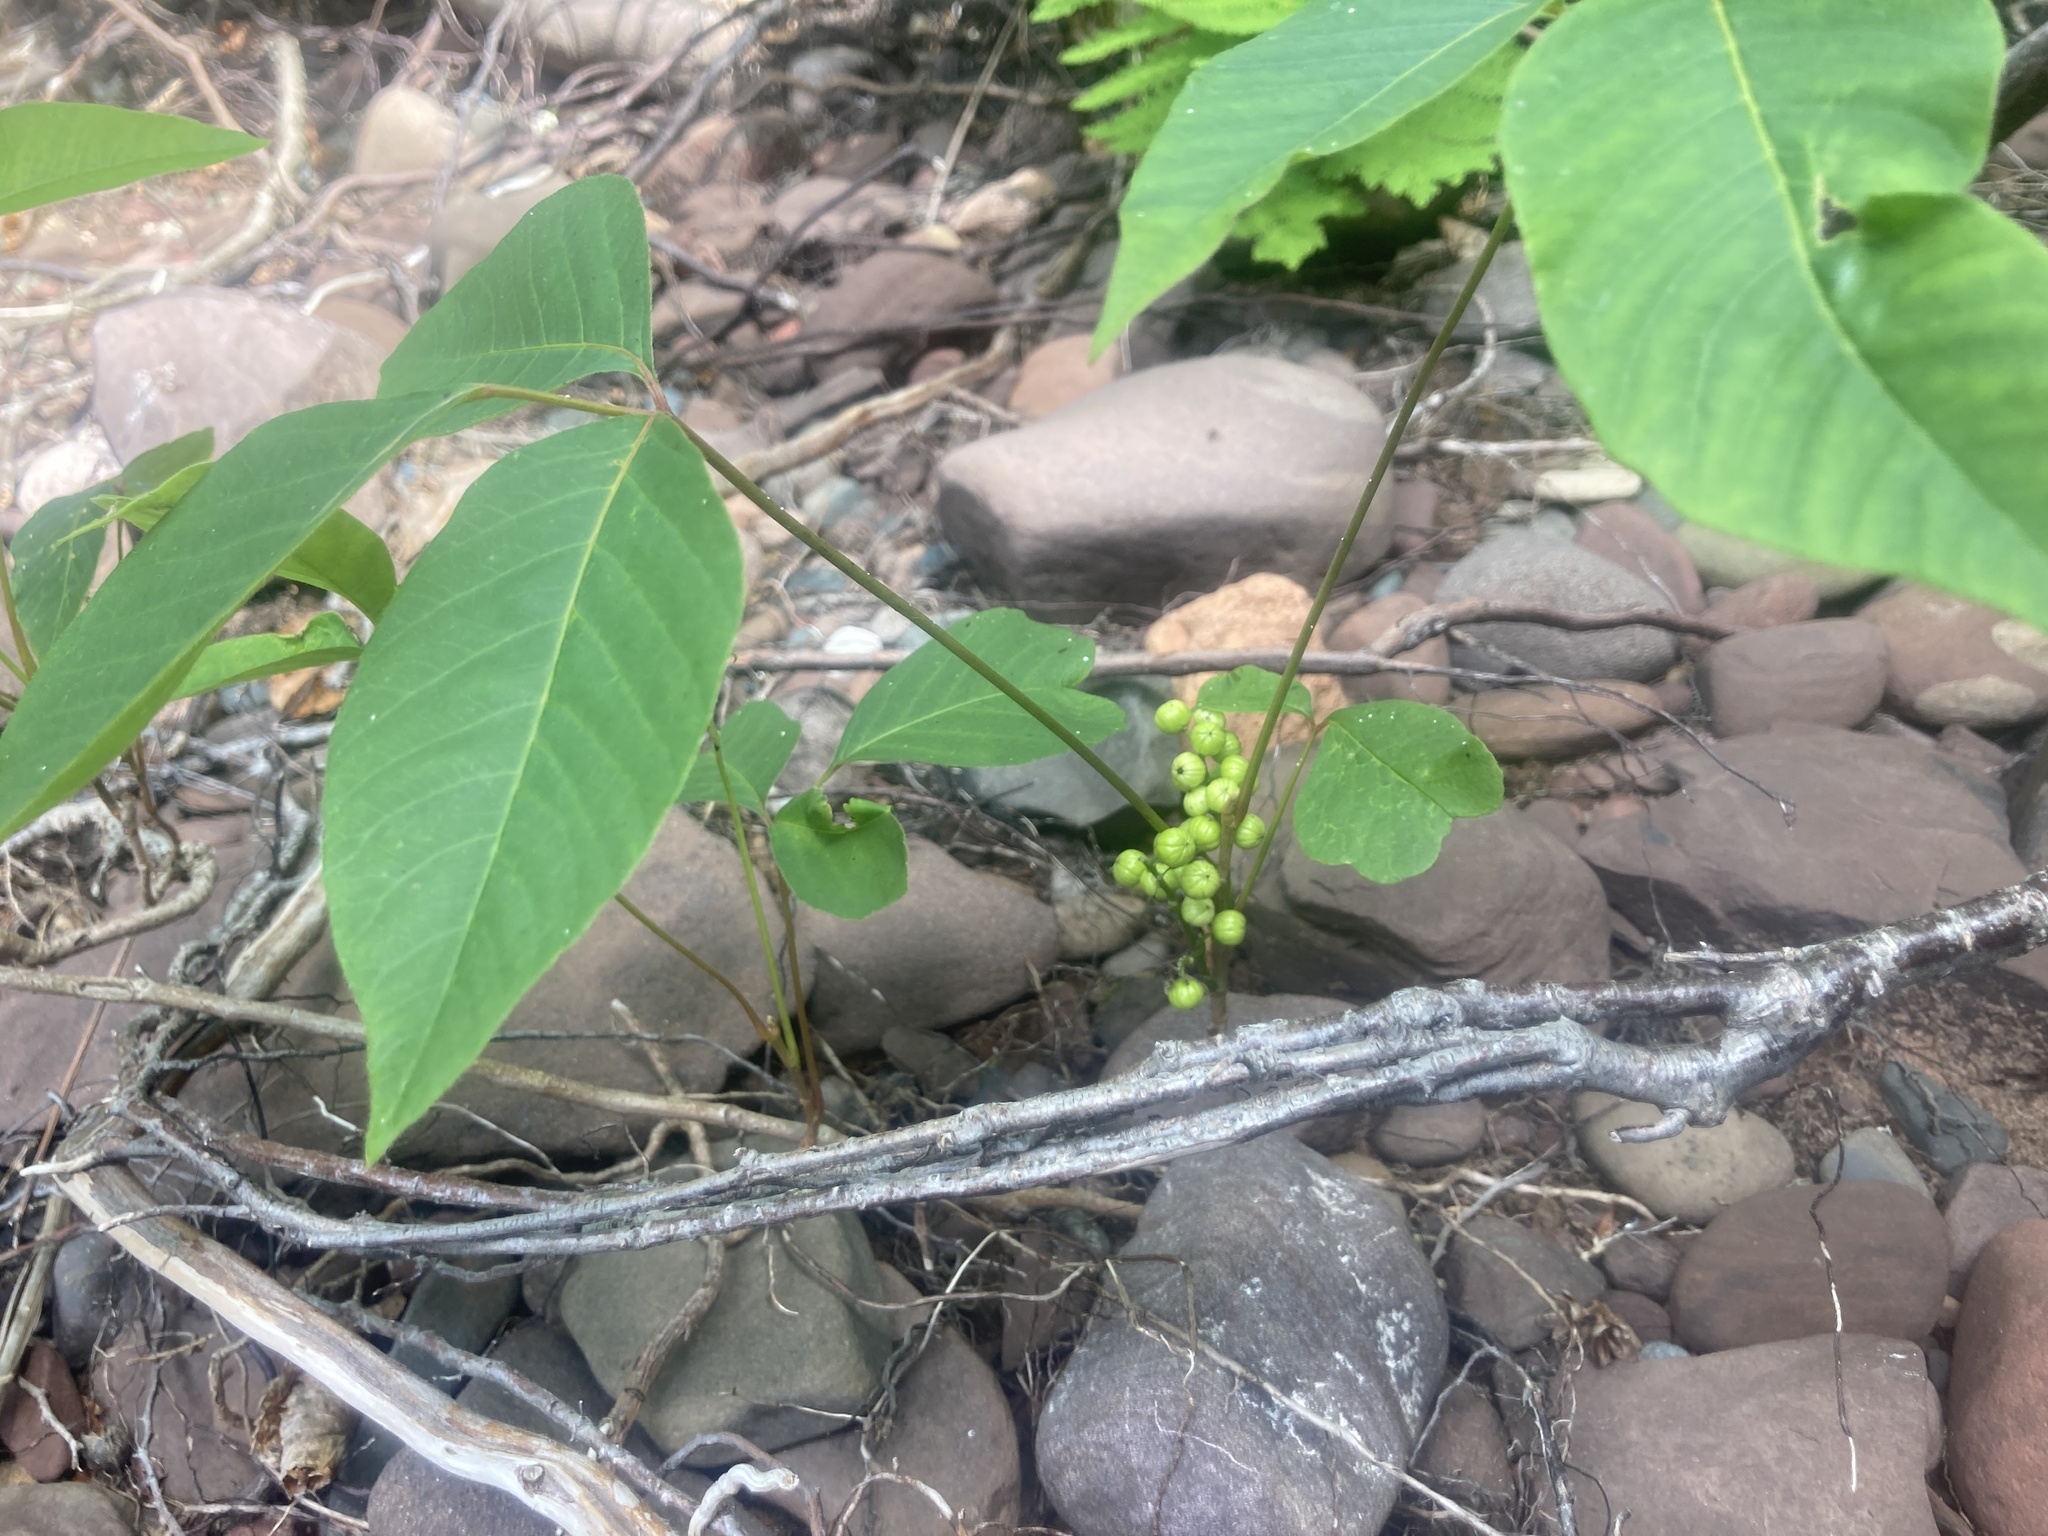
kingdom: Plantae
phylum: Tracheophyta
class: Magnoliopsida
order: Sapindales
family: Anacardiaceae
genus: Toxicodendron
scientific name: Toxicodendron rydbergii
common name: Rydberg's poison-ivy
